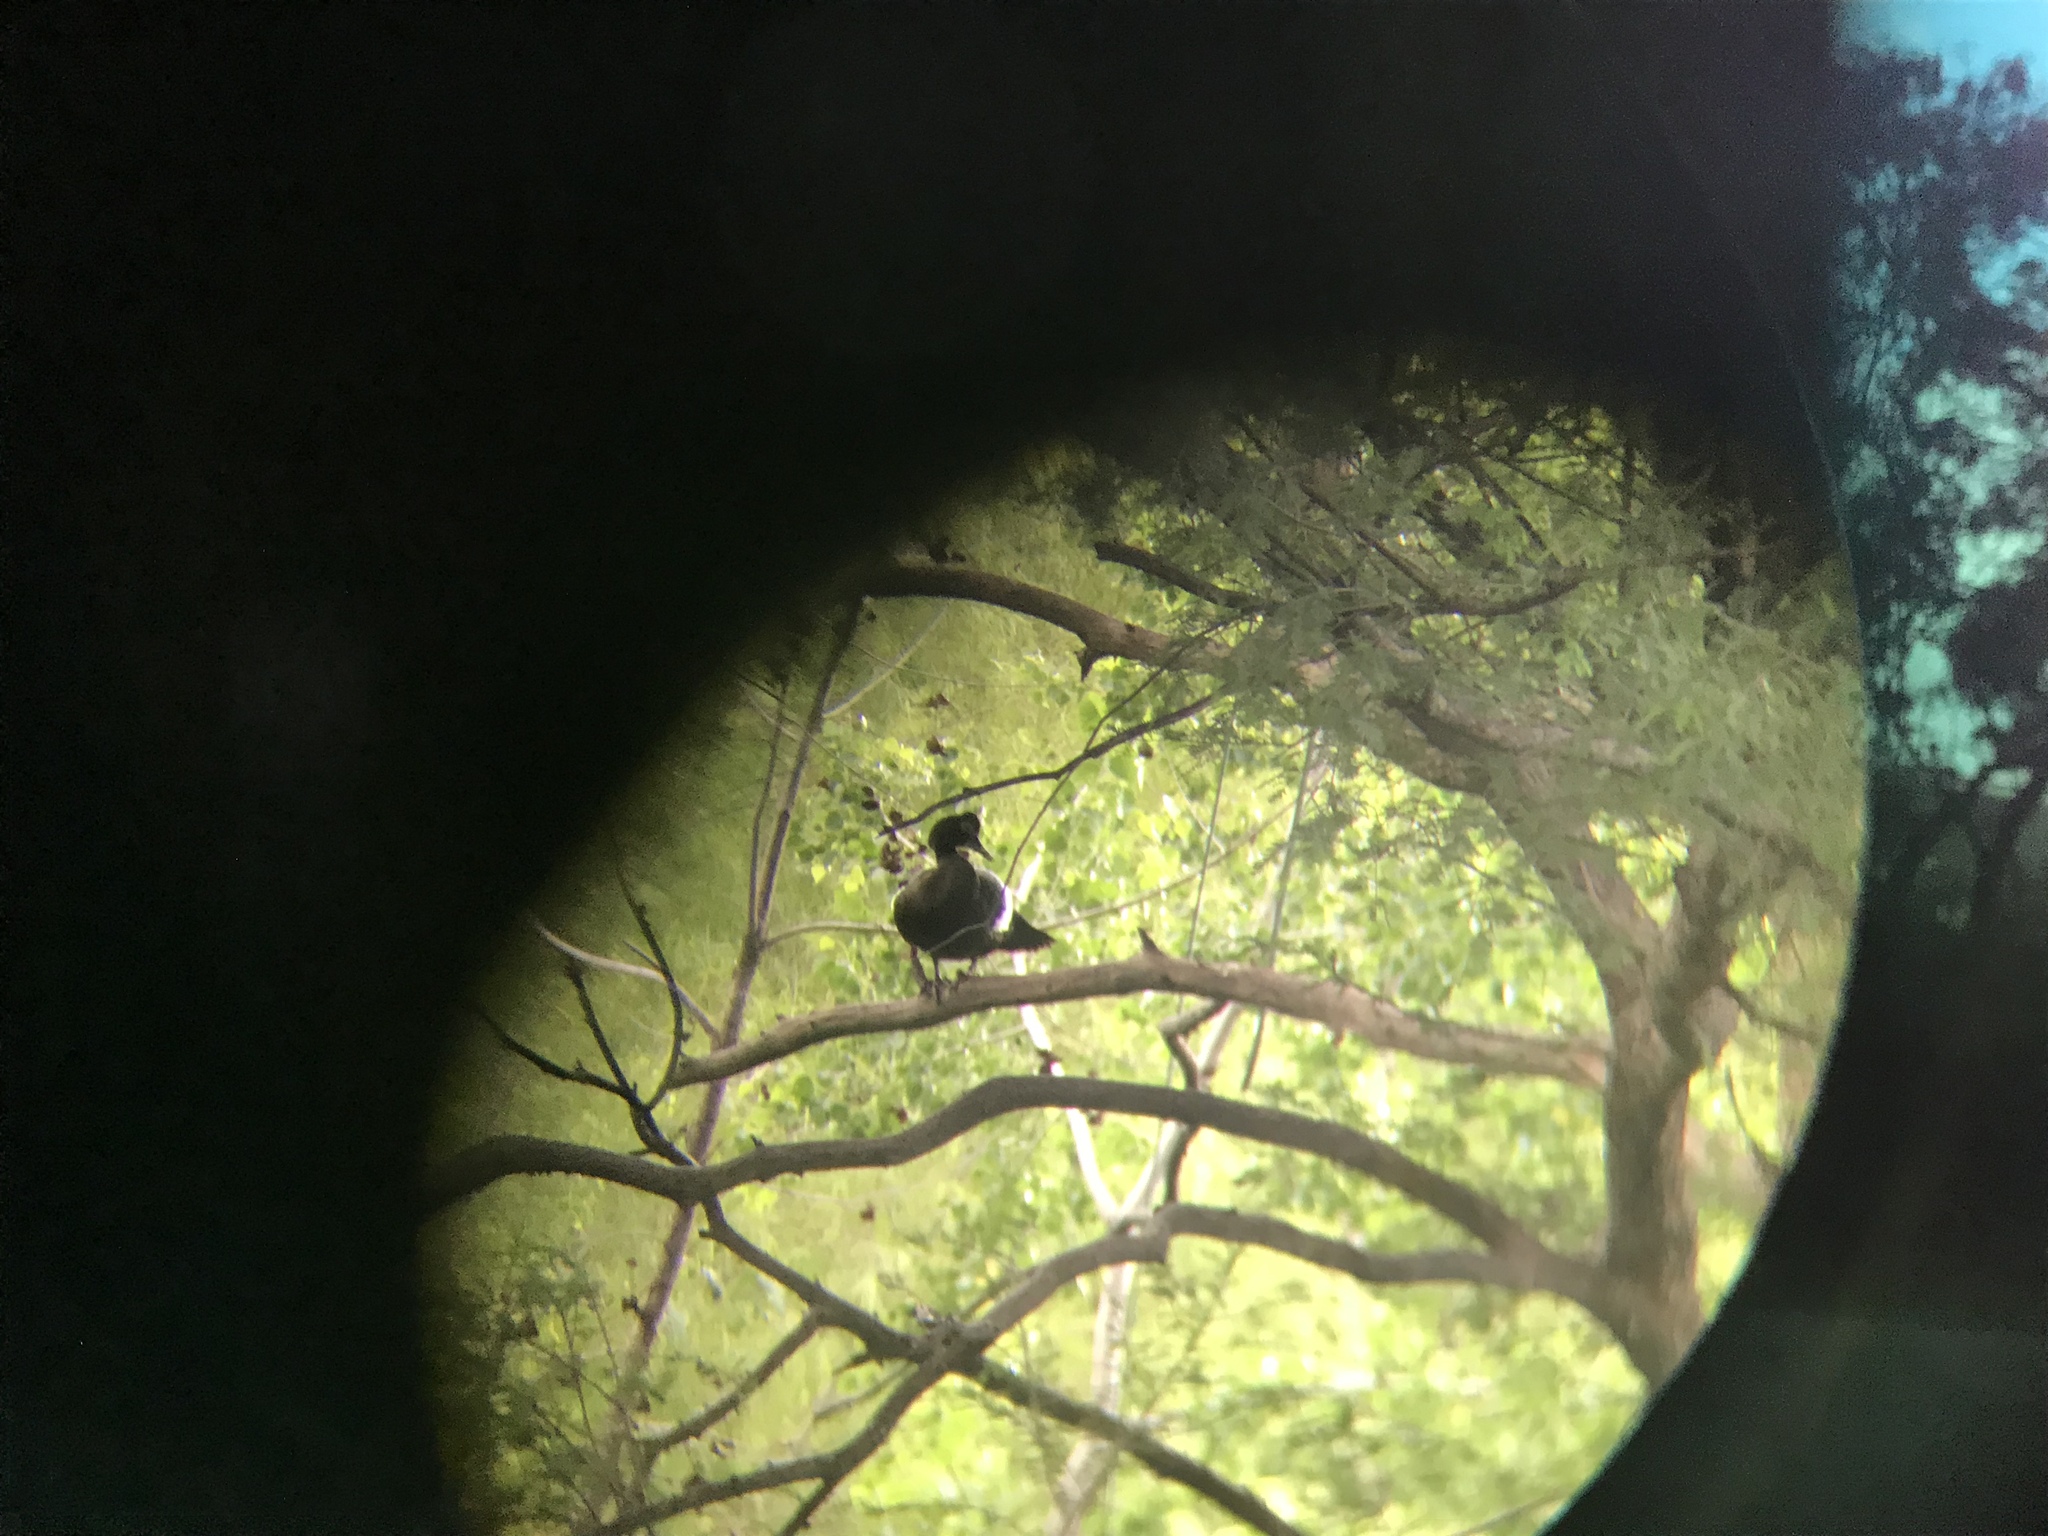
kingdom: Animalia
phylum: Chordata
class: Aves
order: Anseriformes
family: Anatidae
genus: Cairina
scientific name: Cairina moschata
